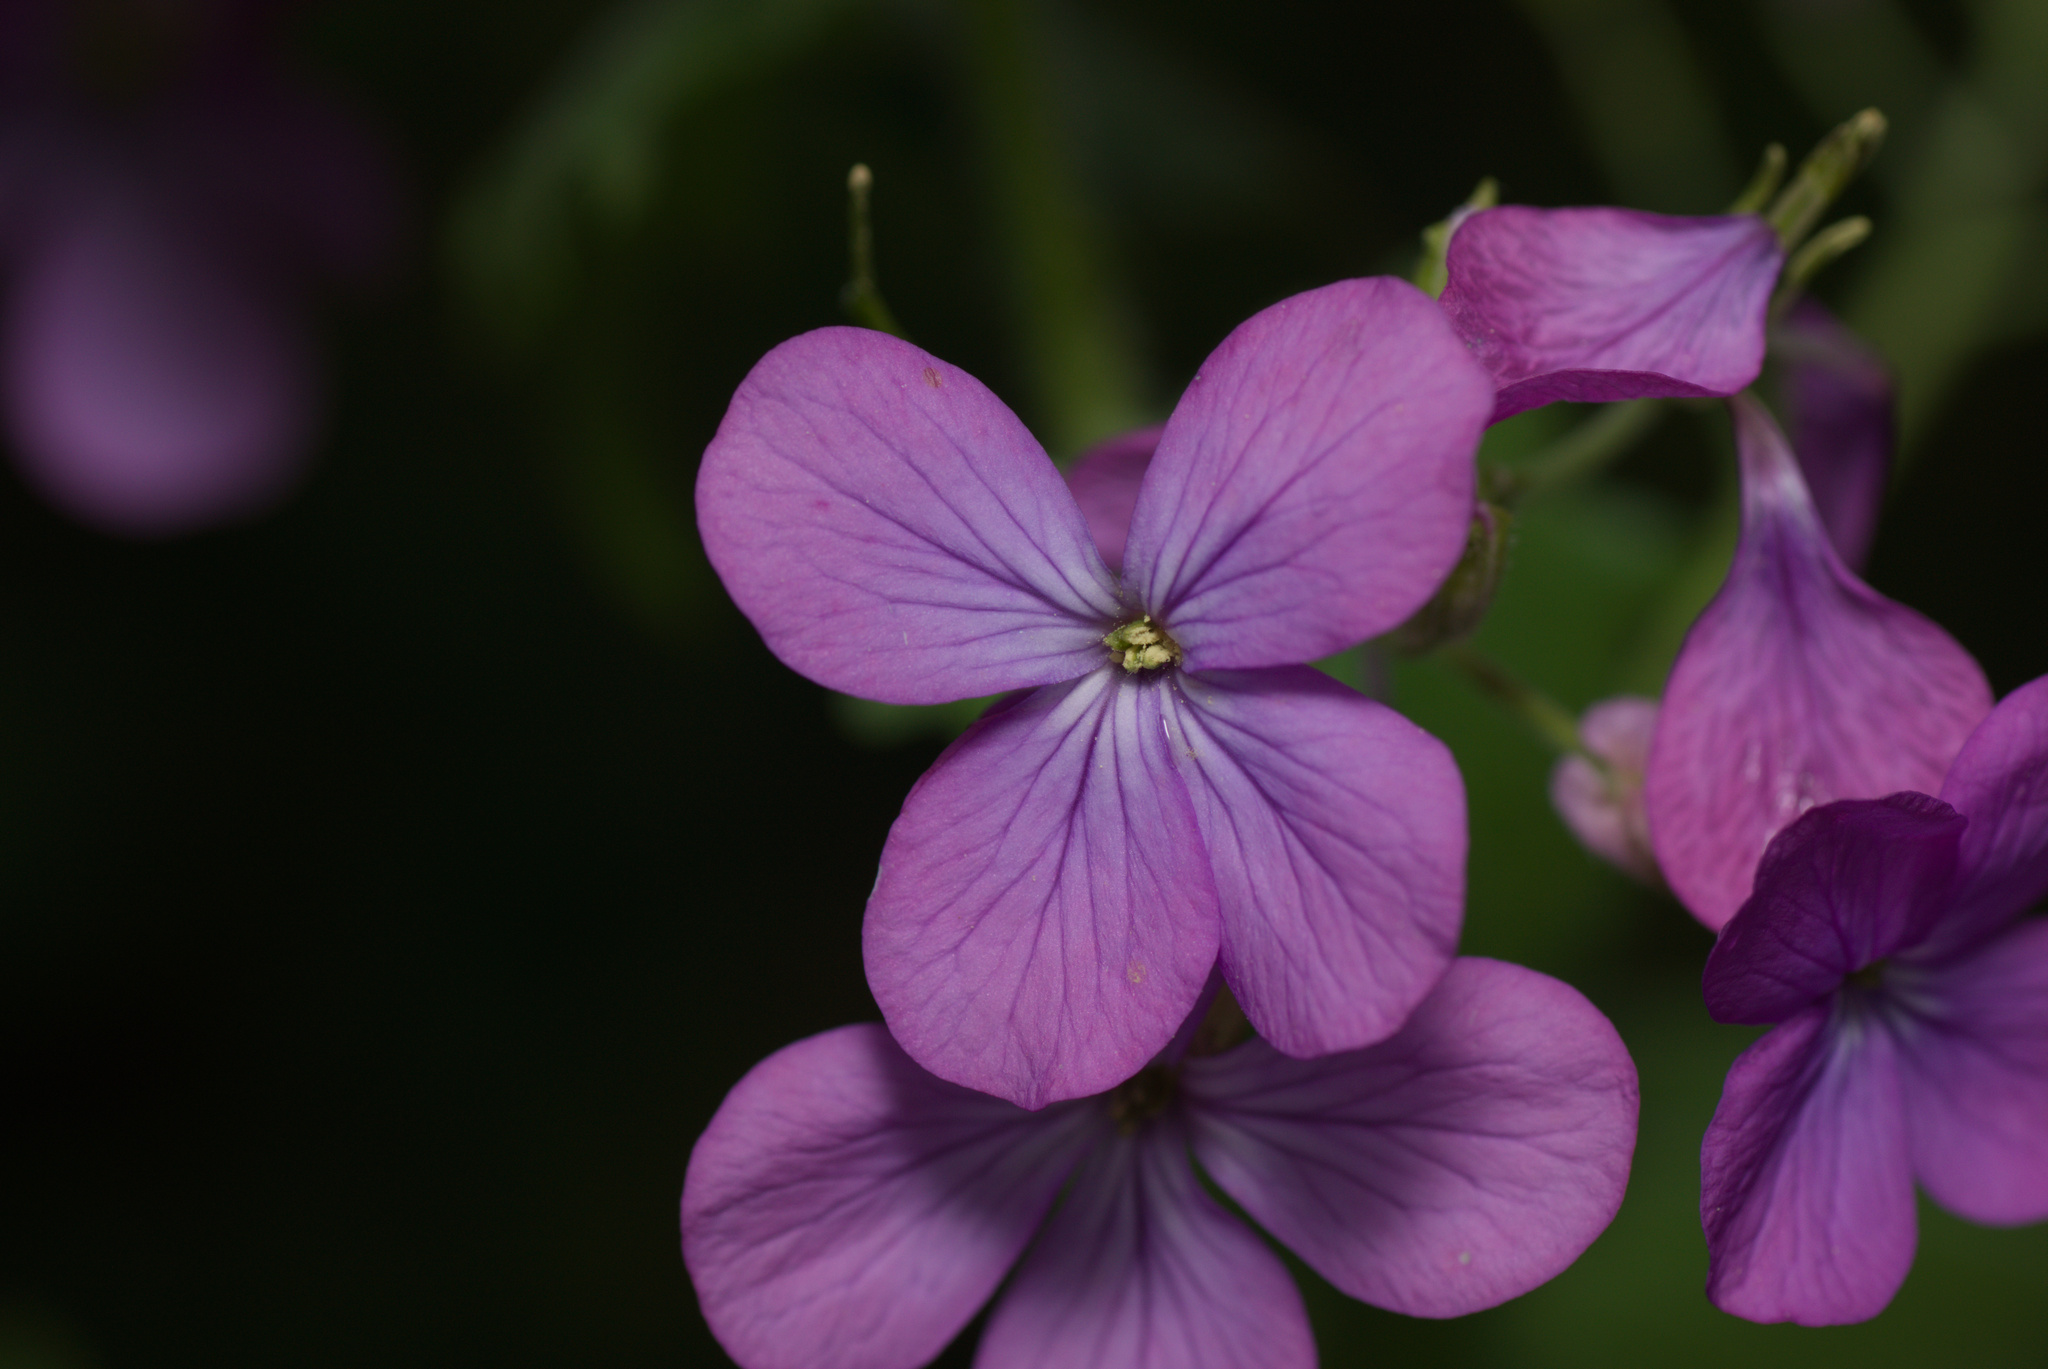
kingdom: Plantae
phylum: Tracheophyta
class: Magnoliopsida
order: Brassicales
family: Brassicaceae
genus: Lunaria
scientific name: Lunaria annua
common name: Honesty
